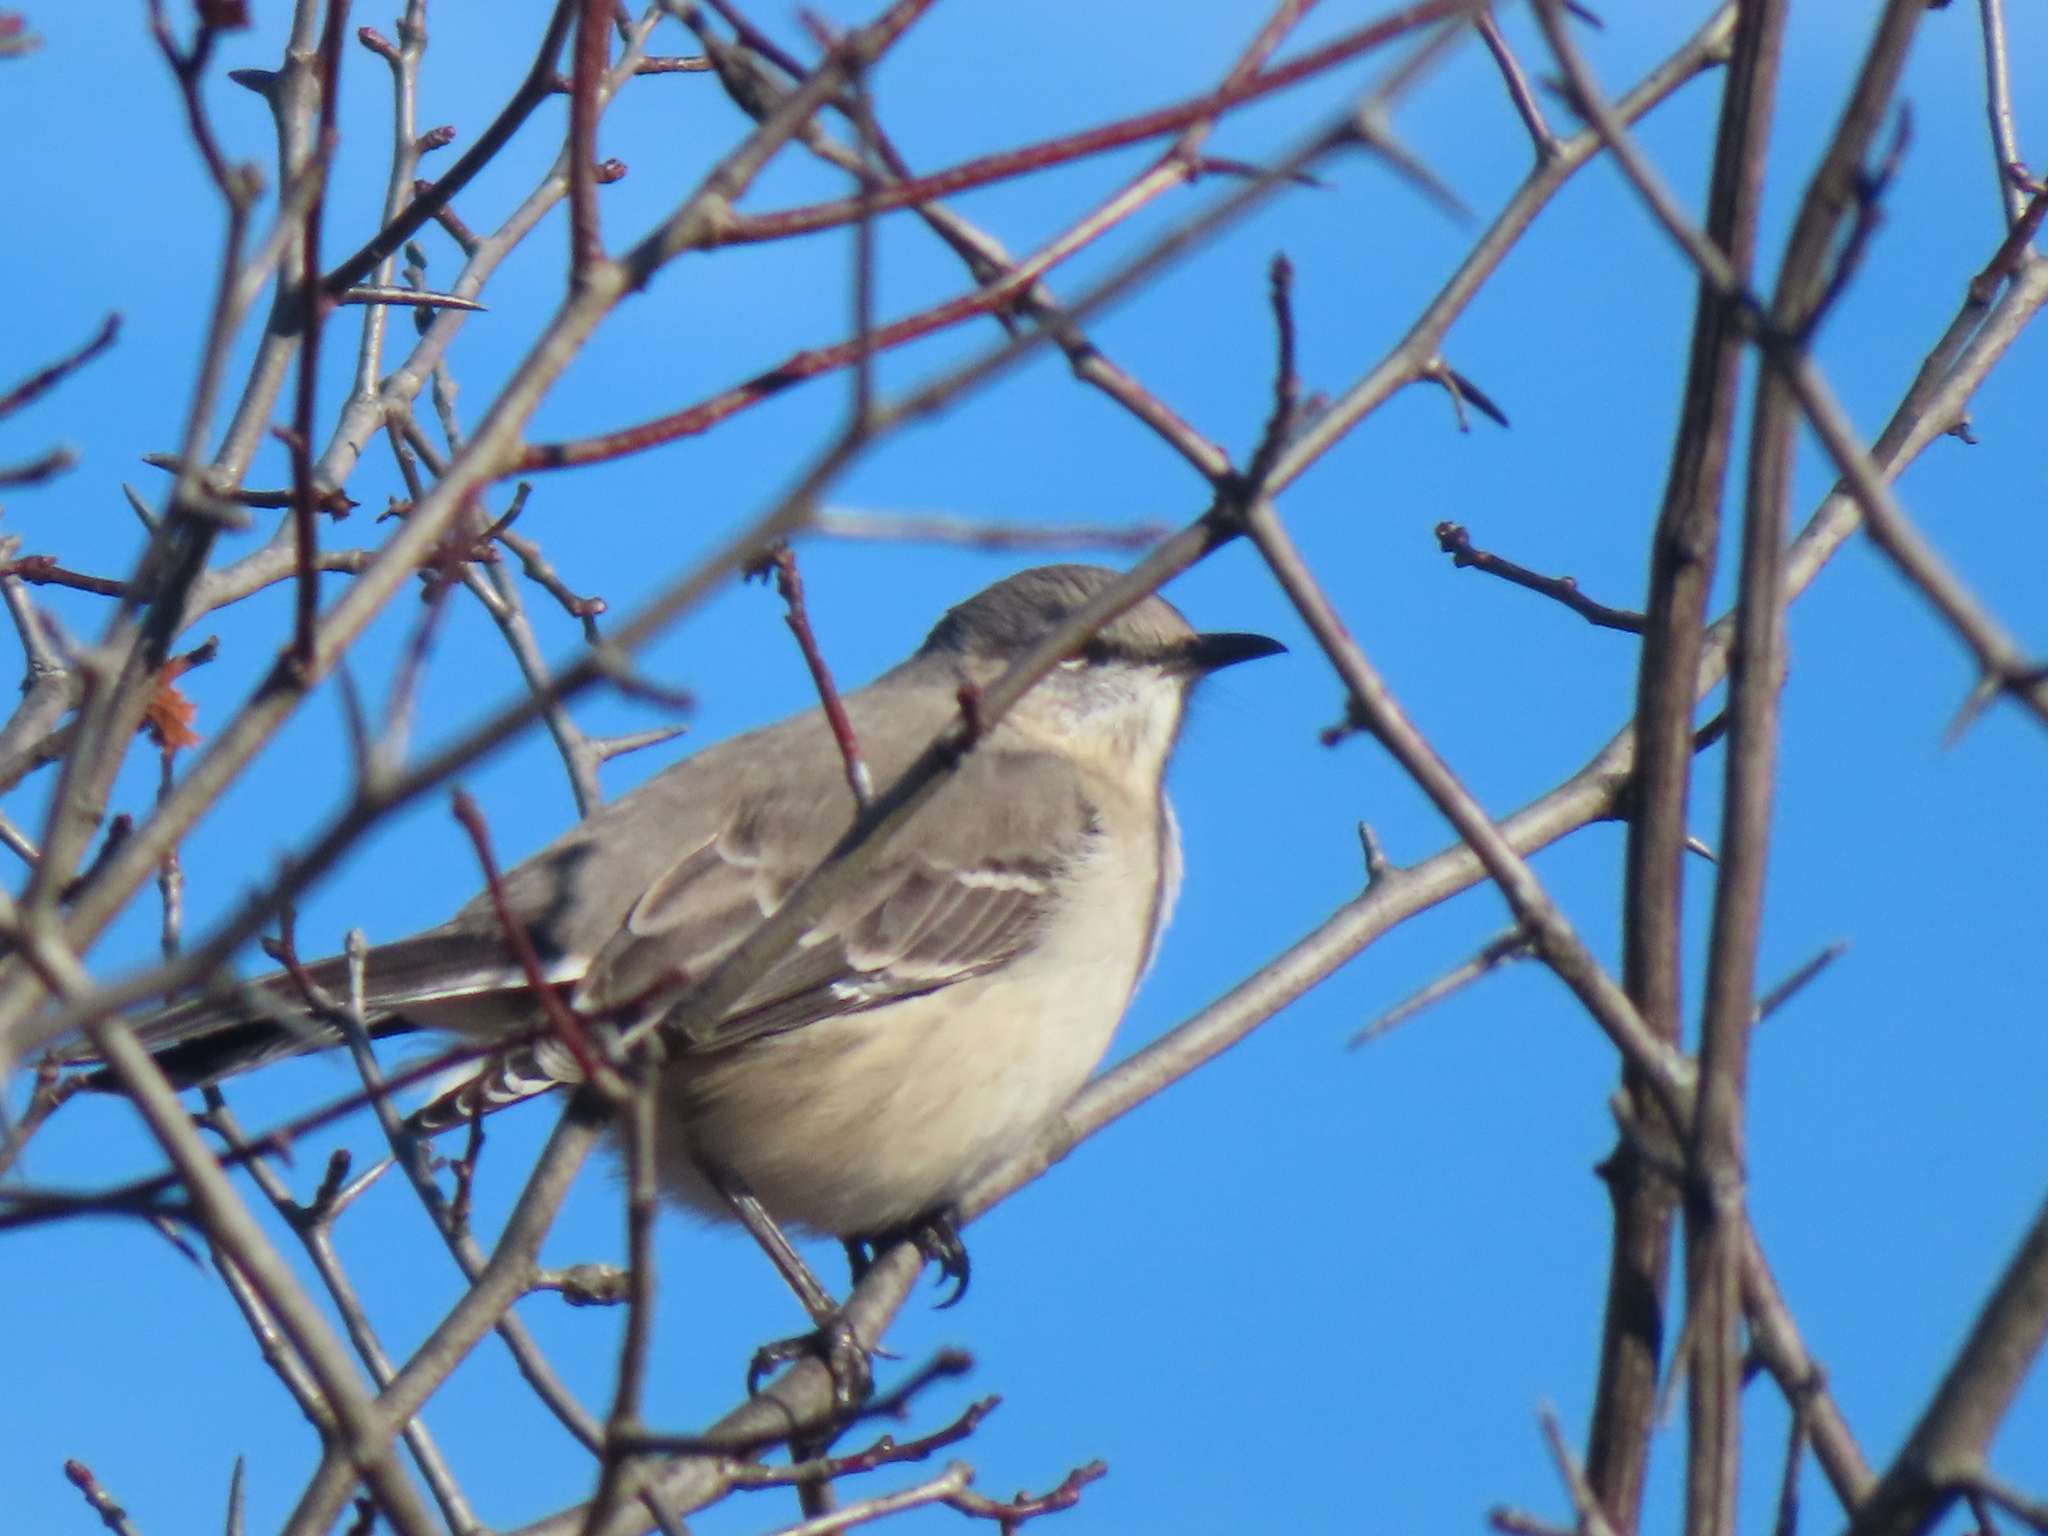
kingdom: Animalia
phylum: Chordata
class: Aves
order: Passeriformes
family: Mimidae
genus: Mimus
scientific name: Mimus polyglottos
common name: Northern mockingbird
